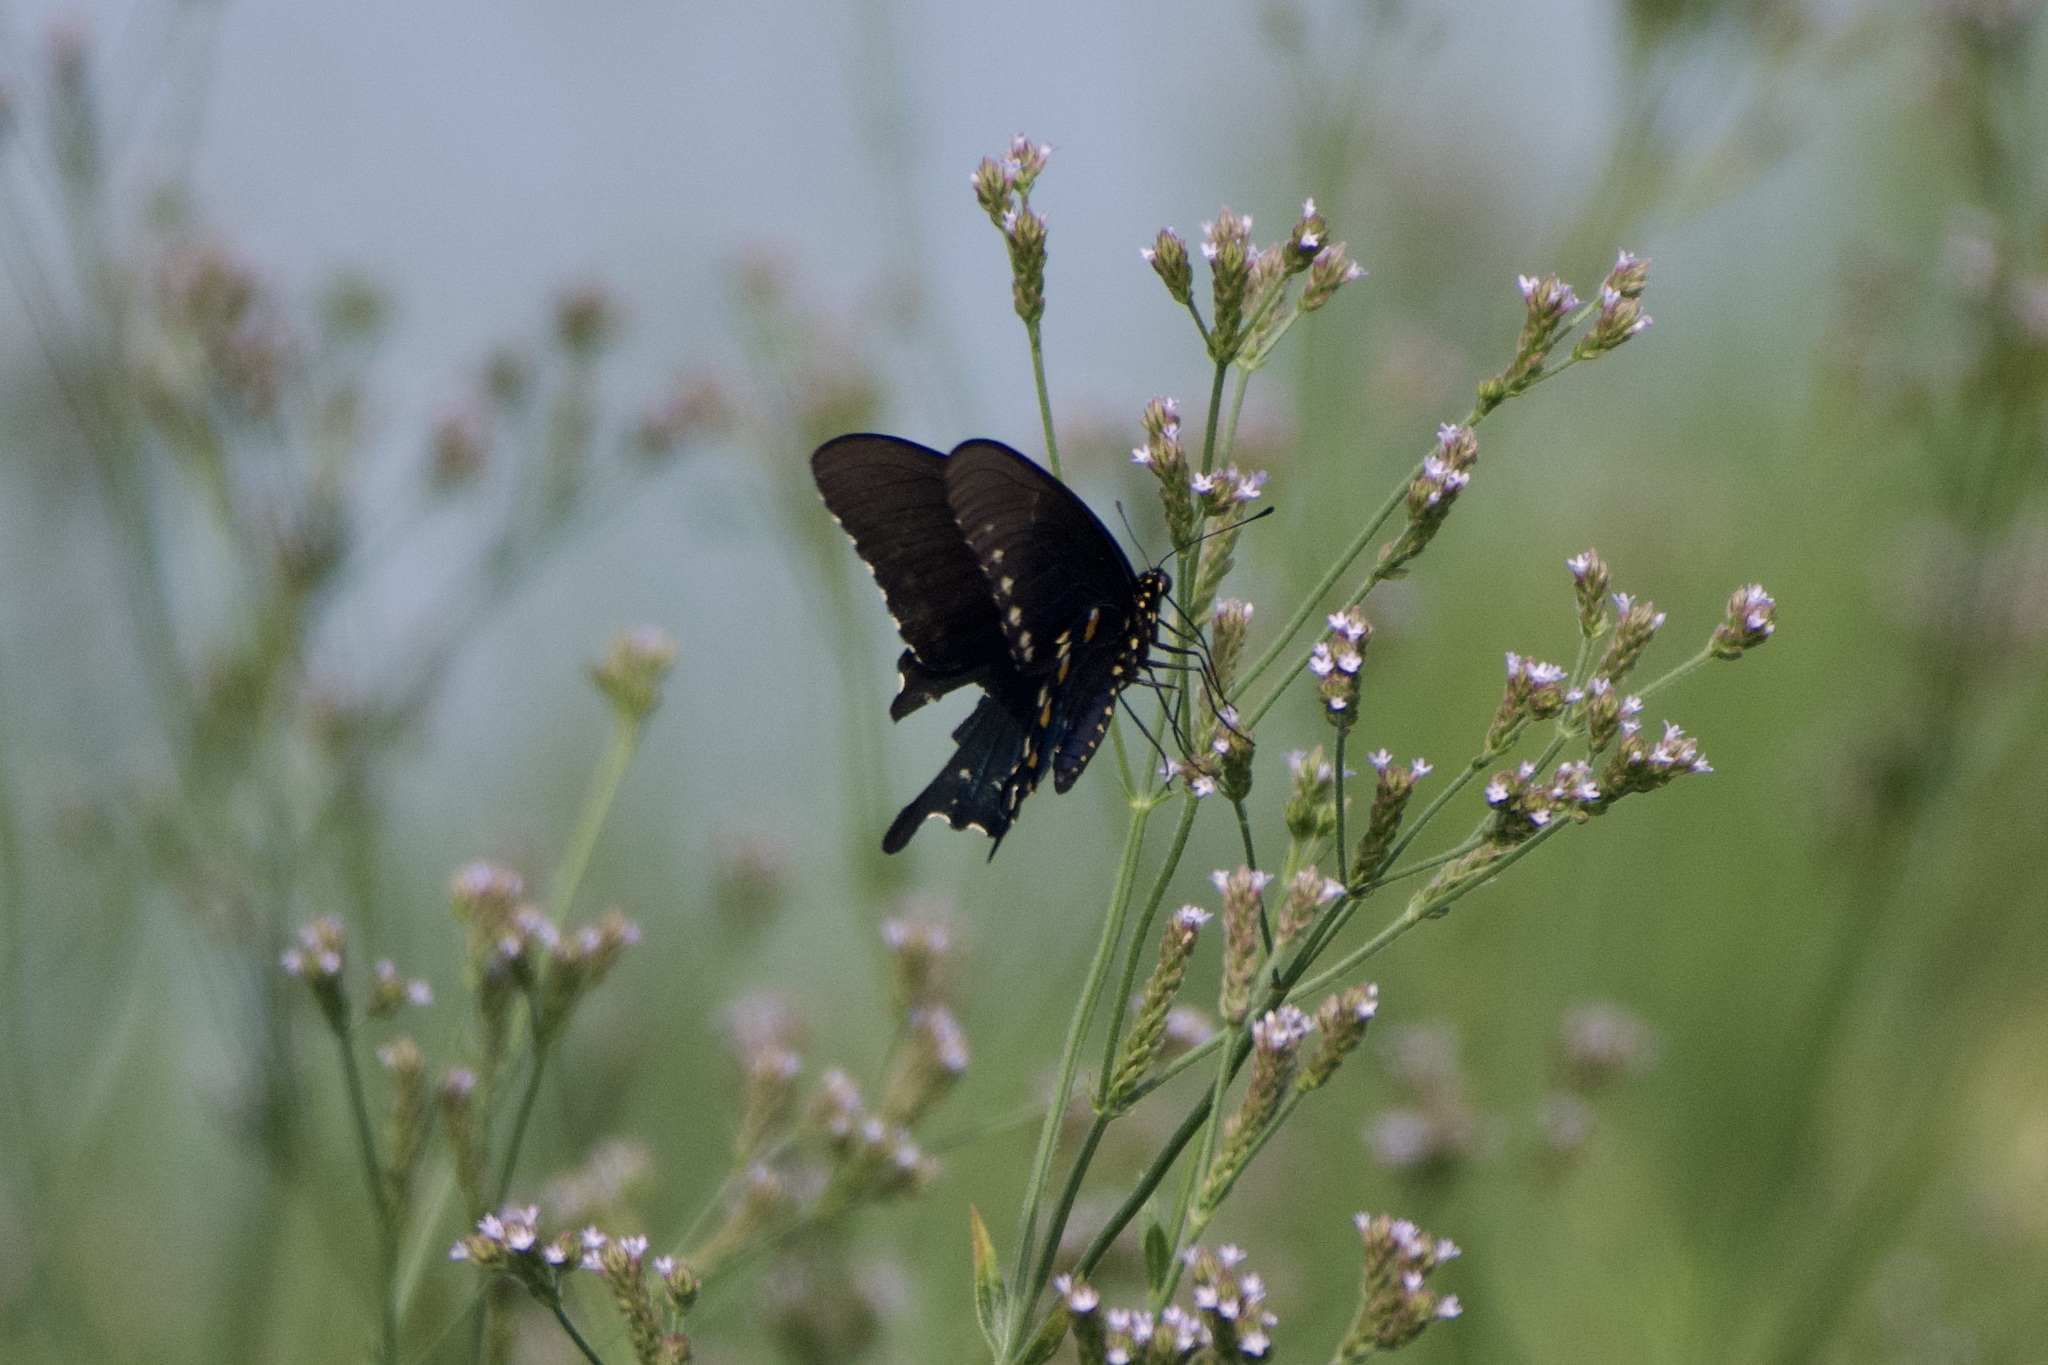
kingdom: Animalia
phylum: Arthropoda
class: Insecta
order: Lepidoptera
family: Papilionidae
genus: Battus
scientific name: Battus philenor
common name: Pipevine swallowtail
